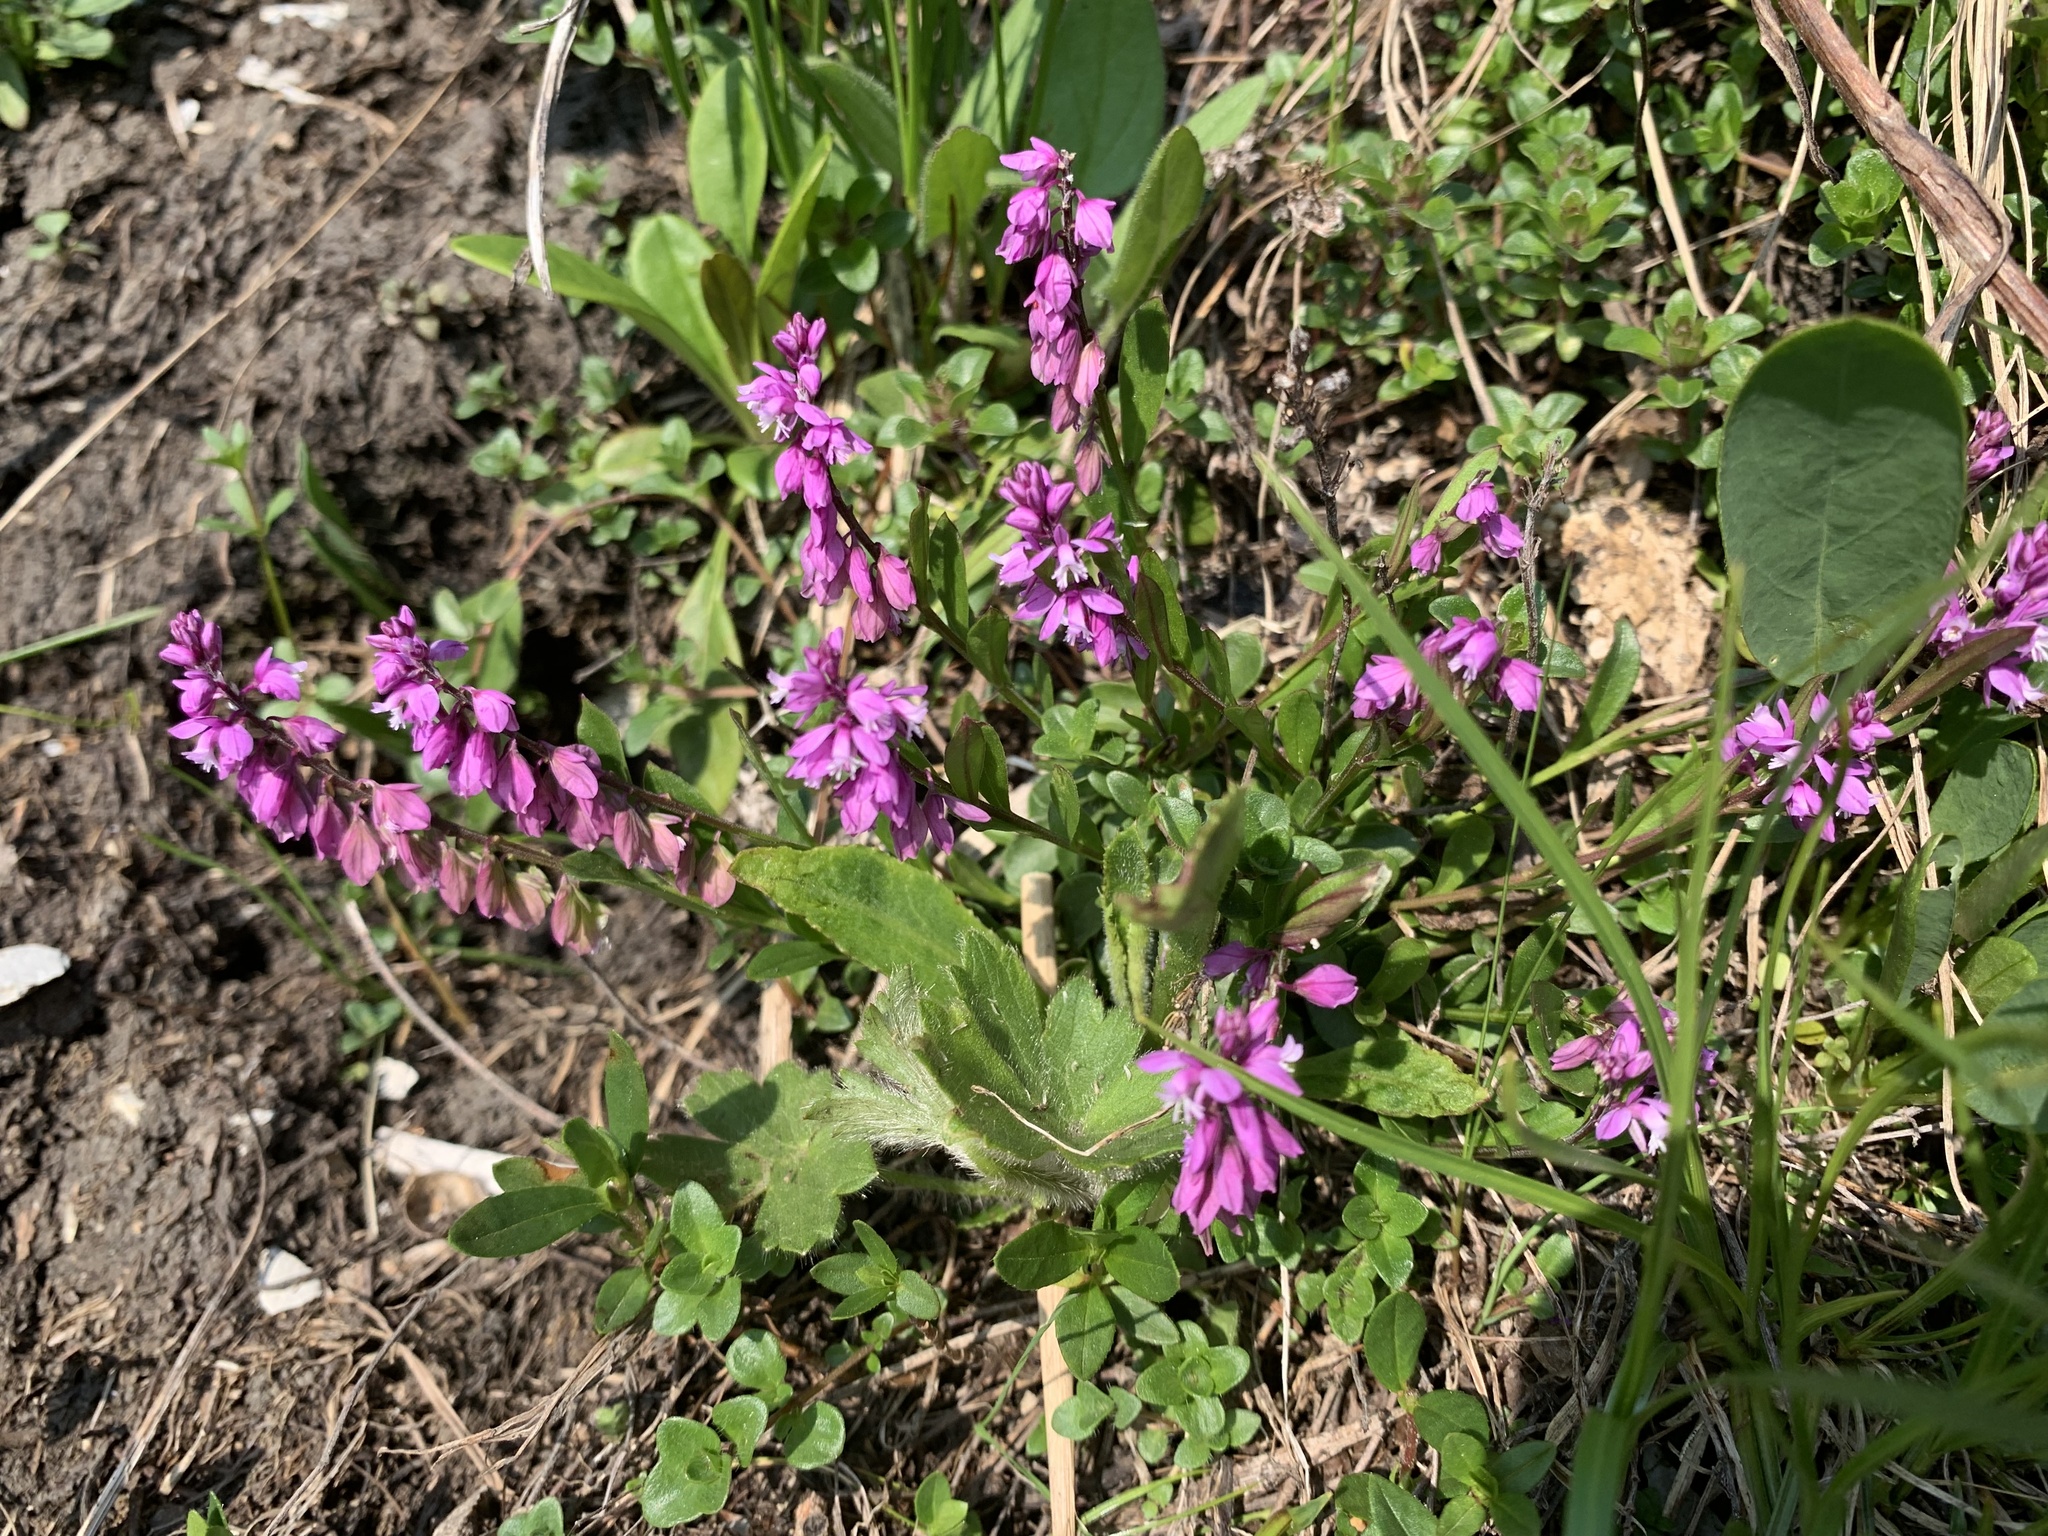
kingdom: Plantae
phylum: Tracheophyta
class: Magnoliopsida
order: Fabales
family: Polygalaceae
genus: Polygala
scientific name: Polygala comosa
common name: Tufted milkwort
